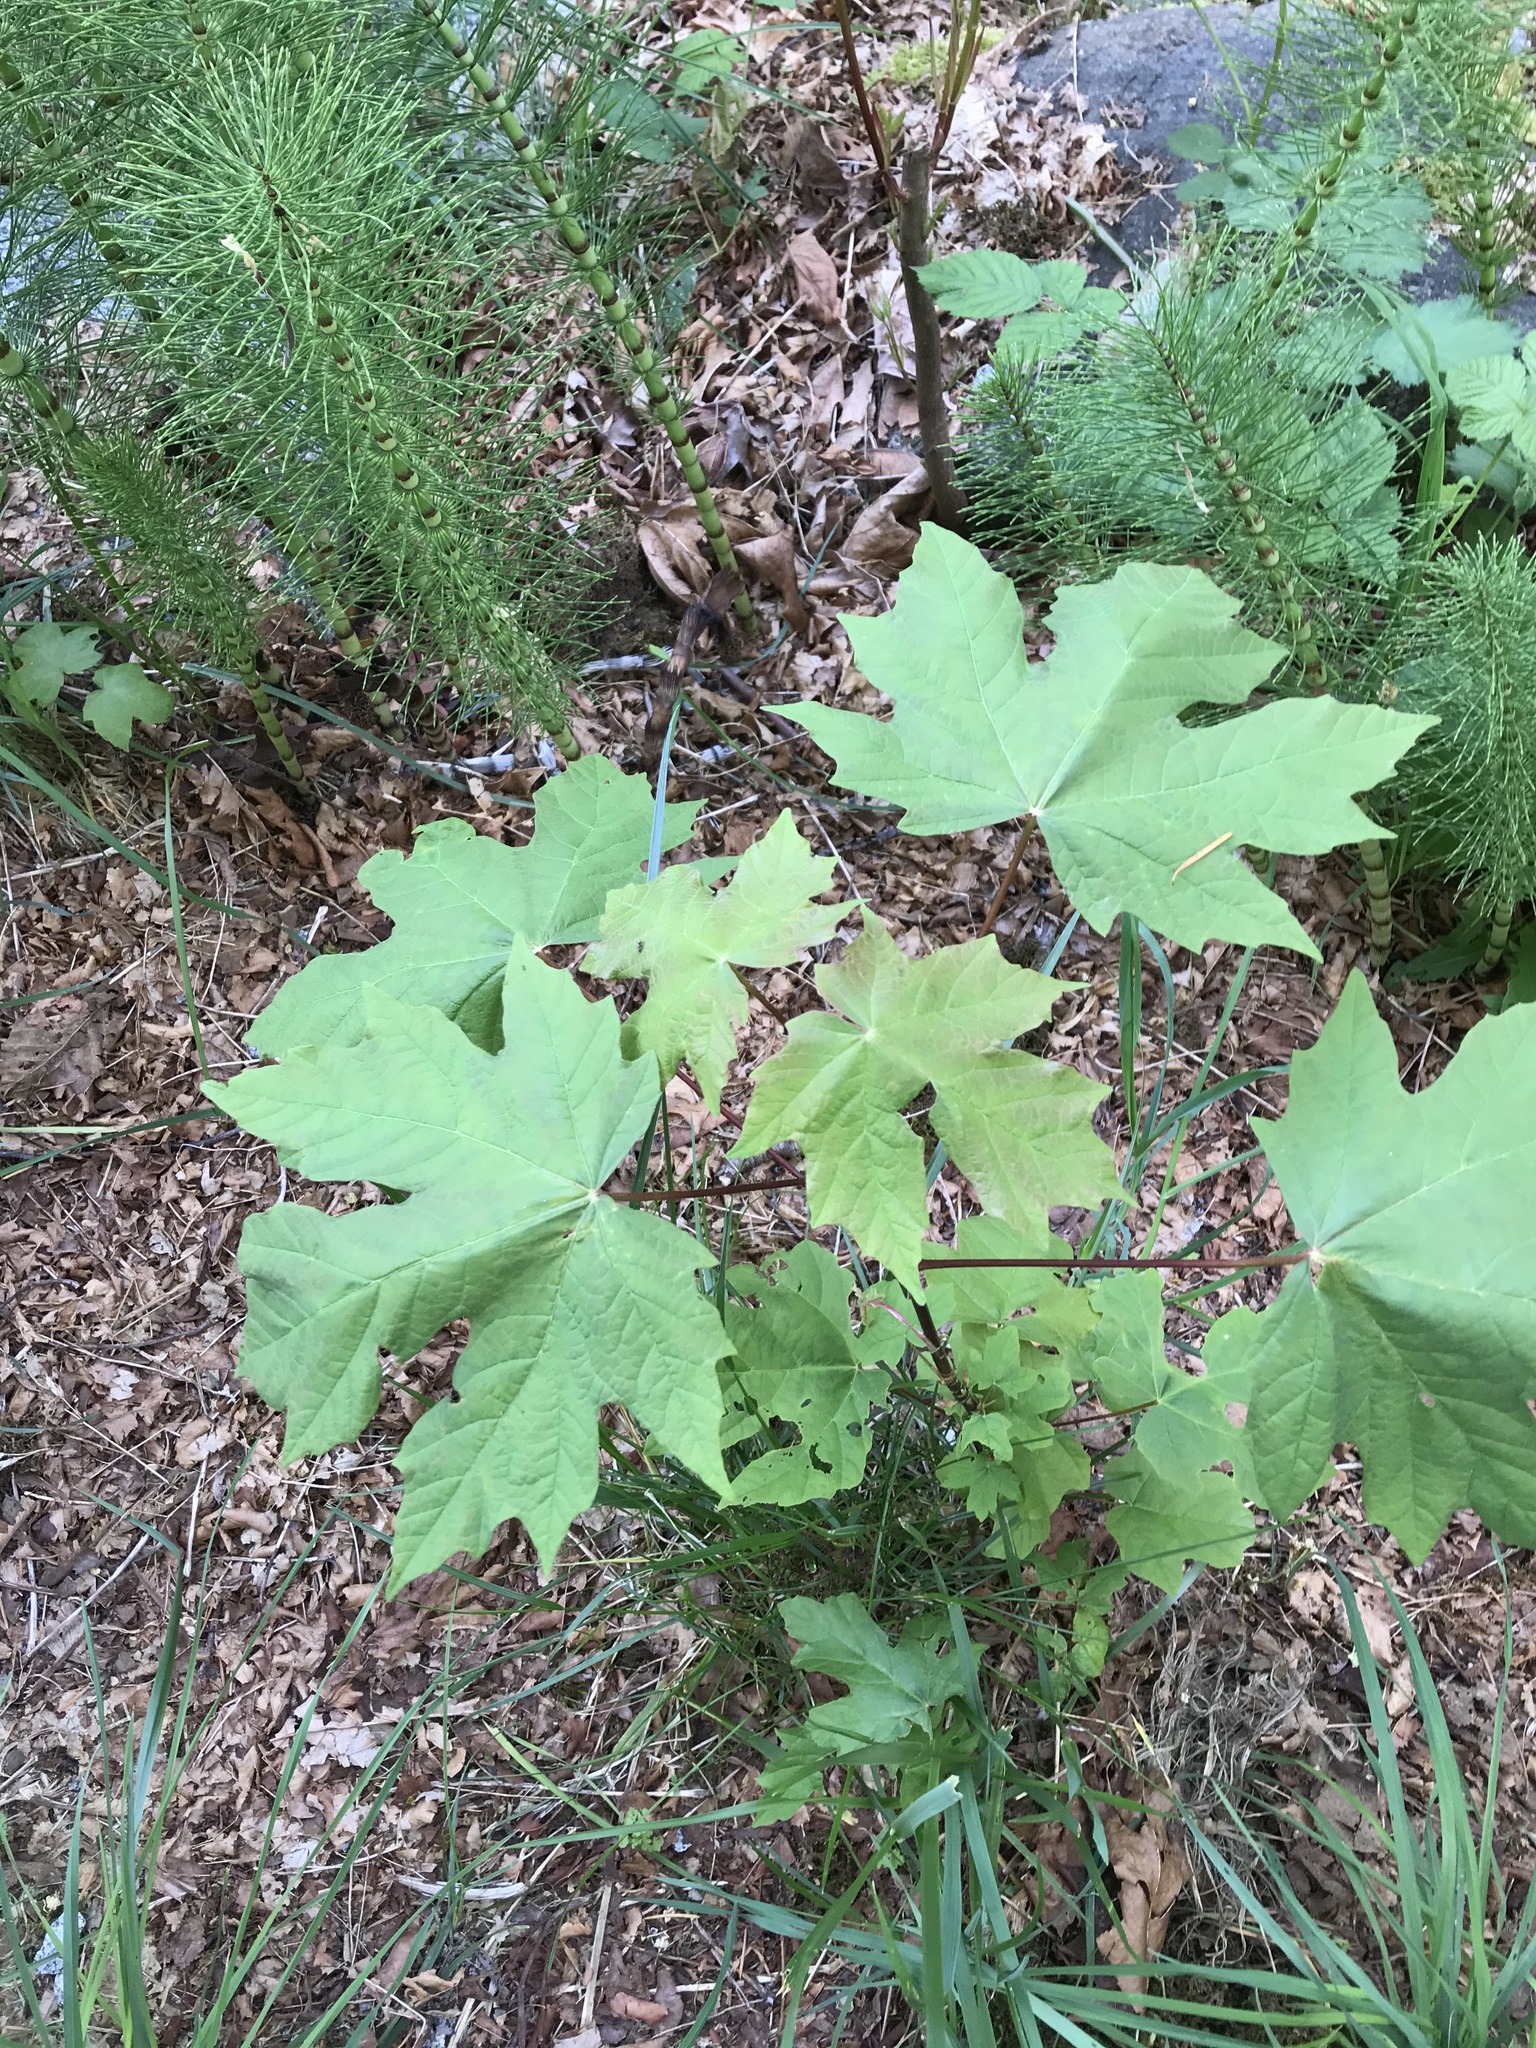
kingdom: Plantae
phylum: Tracheophyta
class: Magnoliopsida
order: Sapindales
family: Sapindaceae
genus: Acer
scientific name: Acer macrophyllum
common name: Oregon maple
